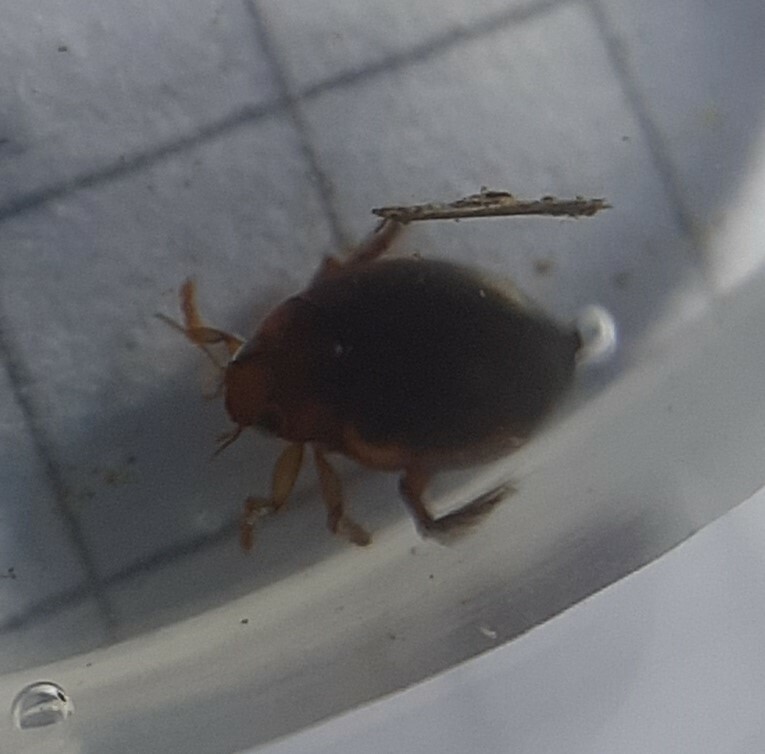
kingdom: Animalia
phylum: Arthropoda
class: Insecta
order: Coleoptera
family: Dytiscidae
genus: Hyphydrus
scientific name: Hyphydrus ovatus
